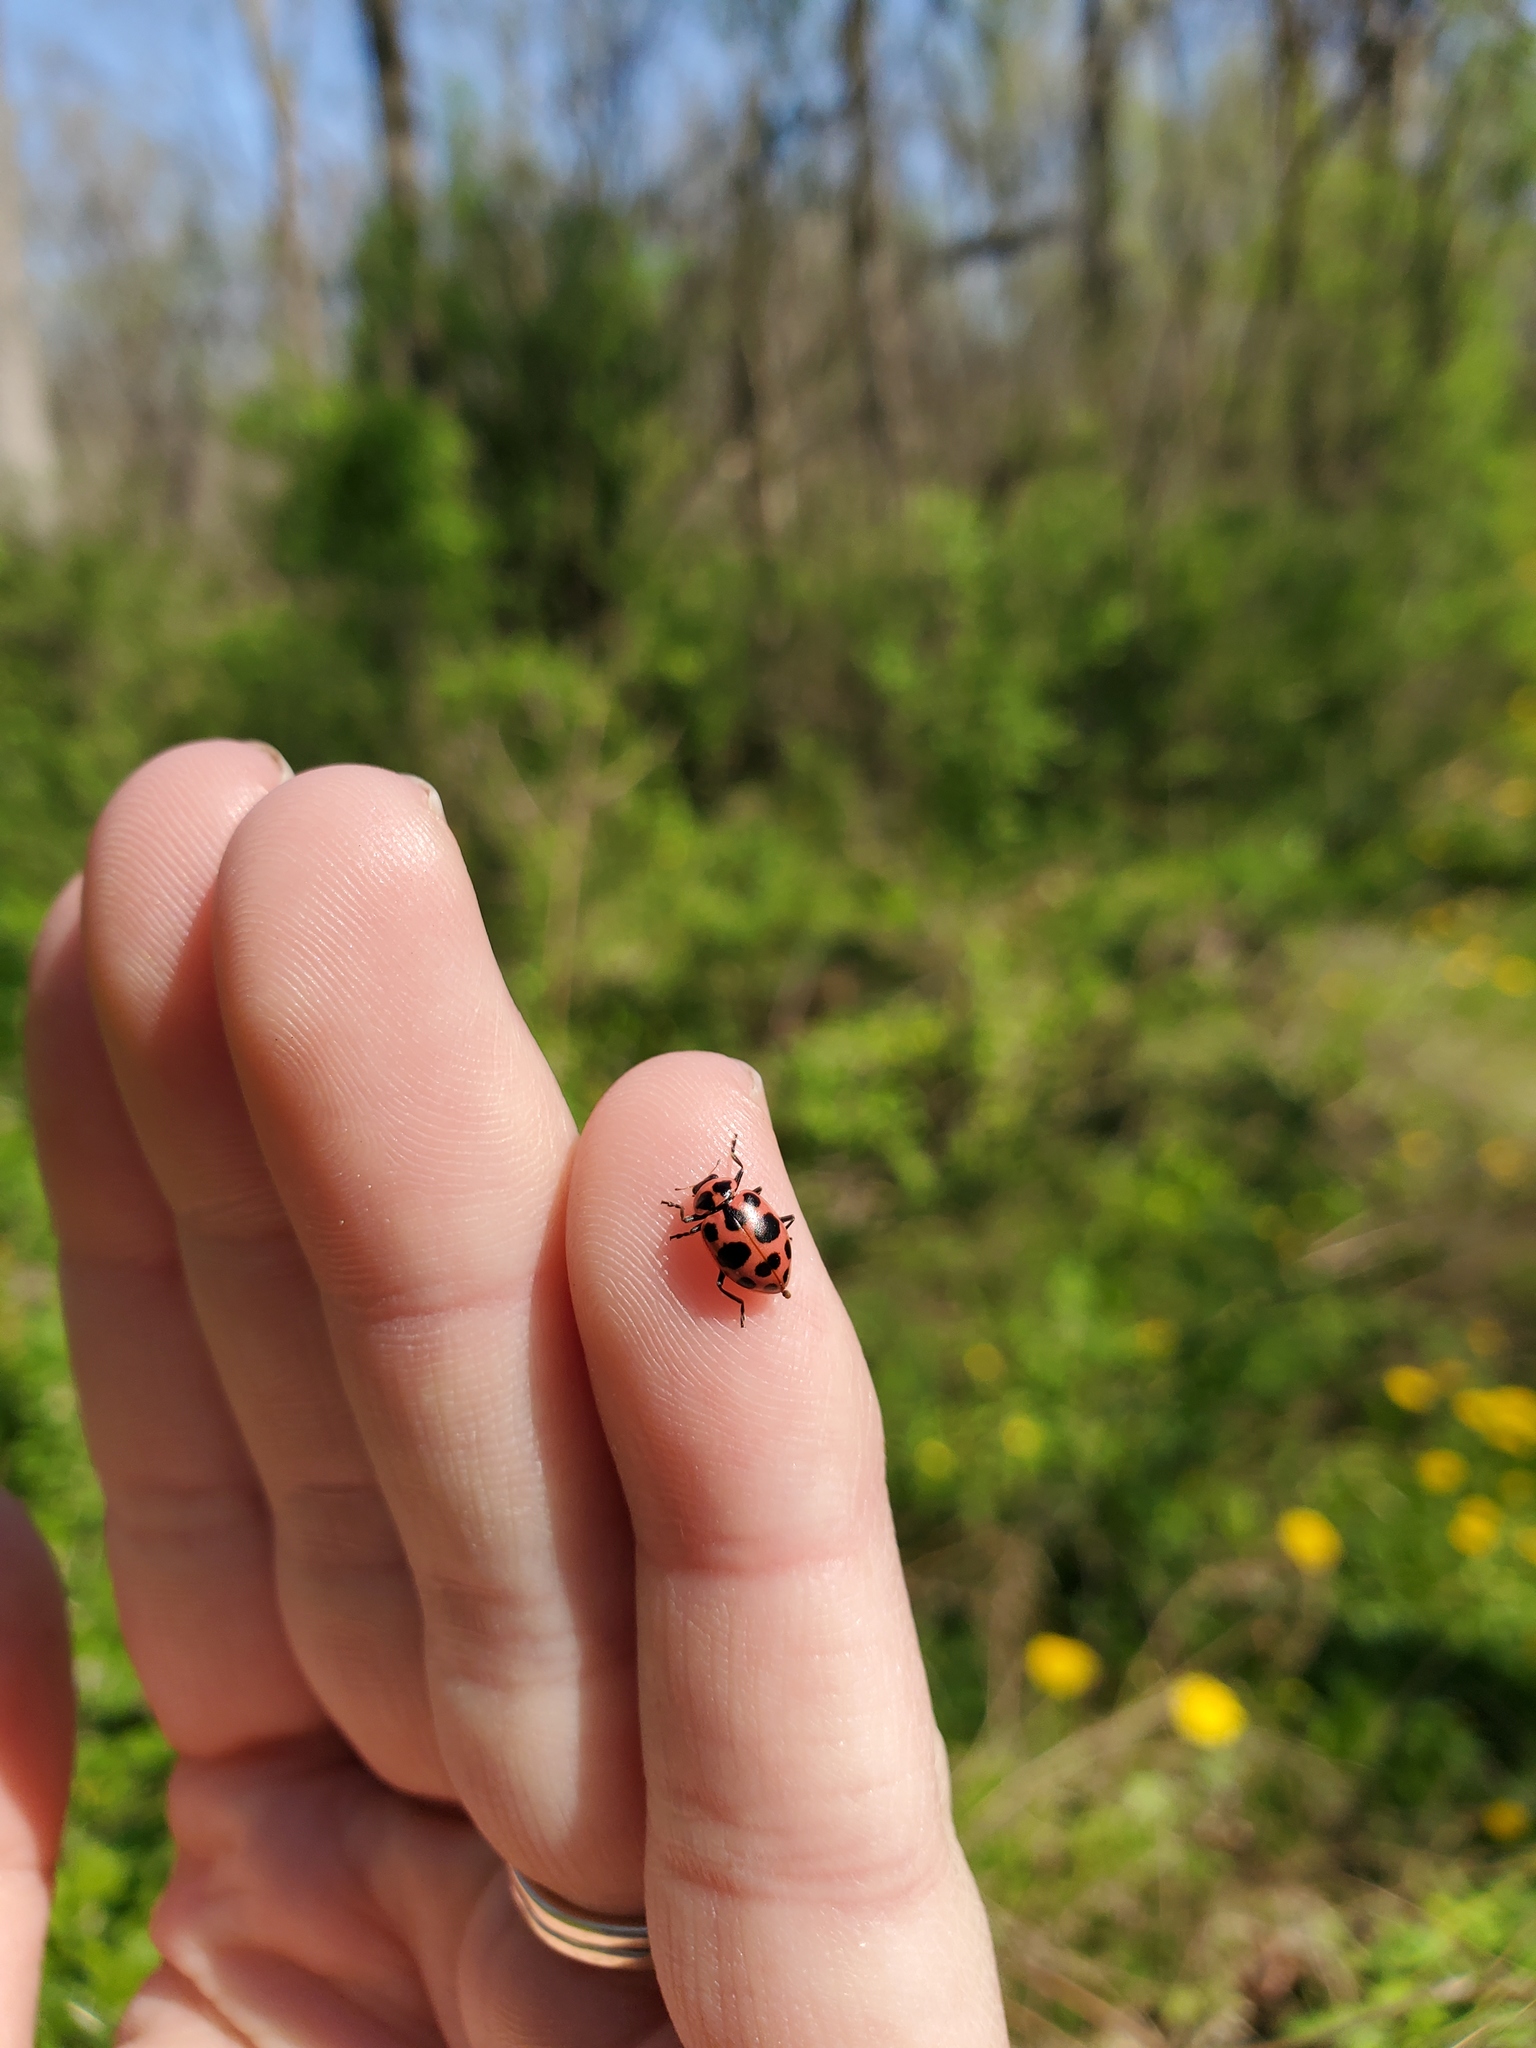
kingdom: Animalia
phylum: Arthropoda
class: Insecta
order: Coleoptera
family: Coccinellidae
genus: Coleomegilla
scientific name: Coleomegilla maculata
